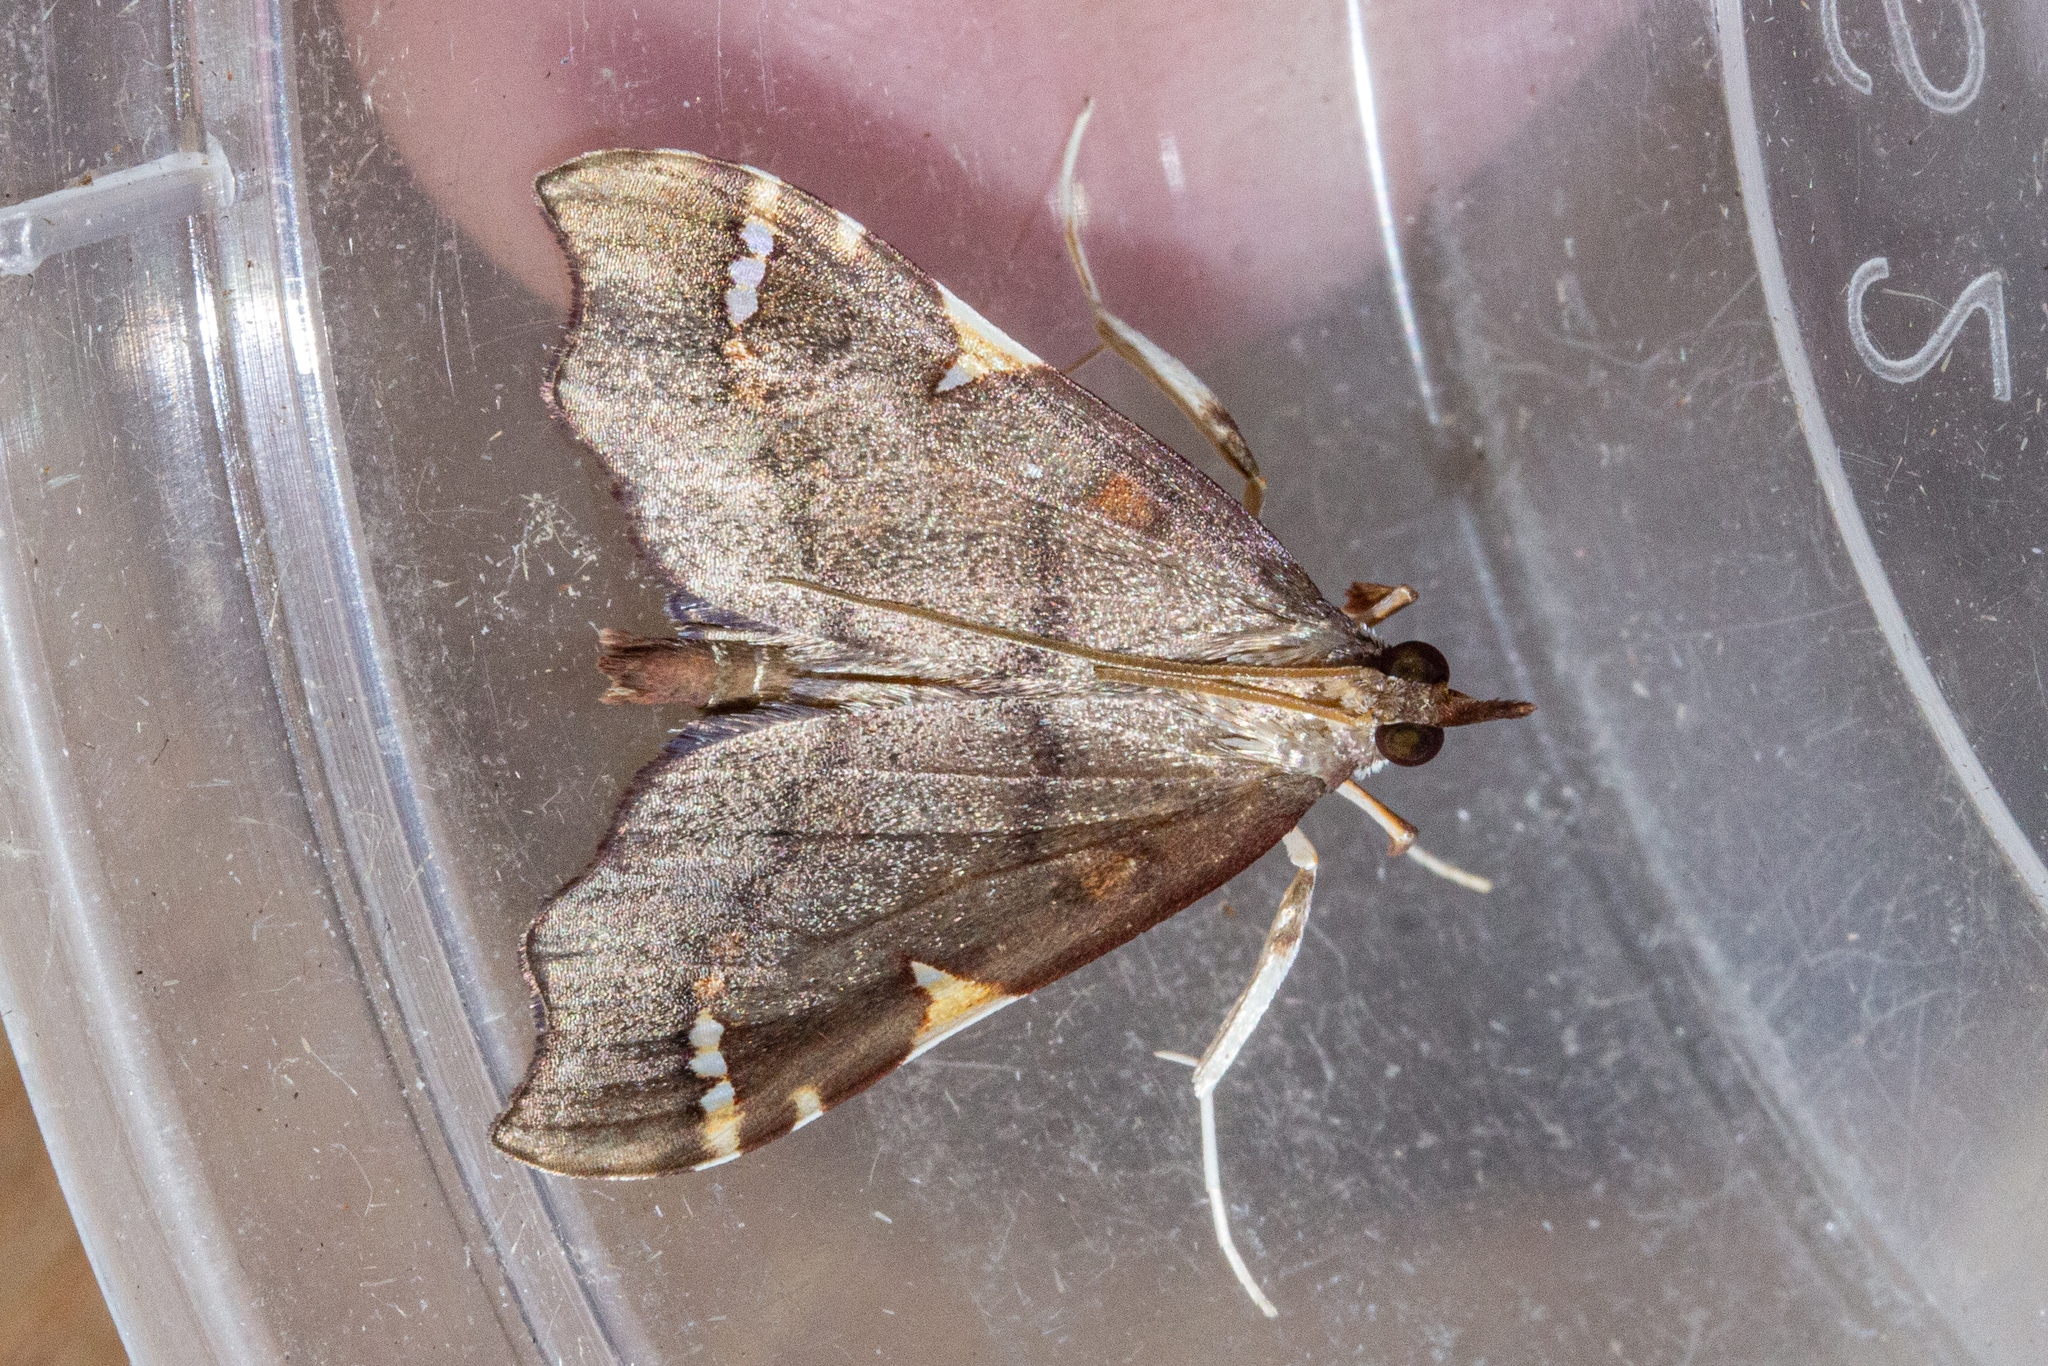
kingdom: Animalia
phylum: Arthropoda
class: Insecta
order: Lepidoptera
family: Crambidae
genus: Deana
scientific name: Deana hybreasalis
